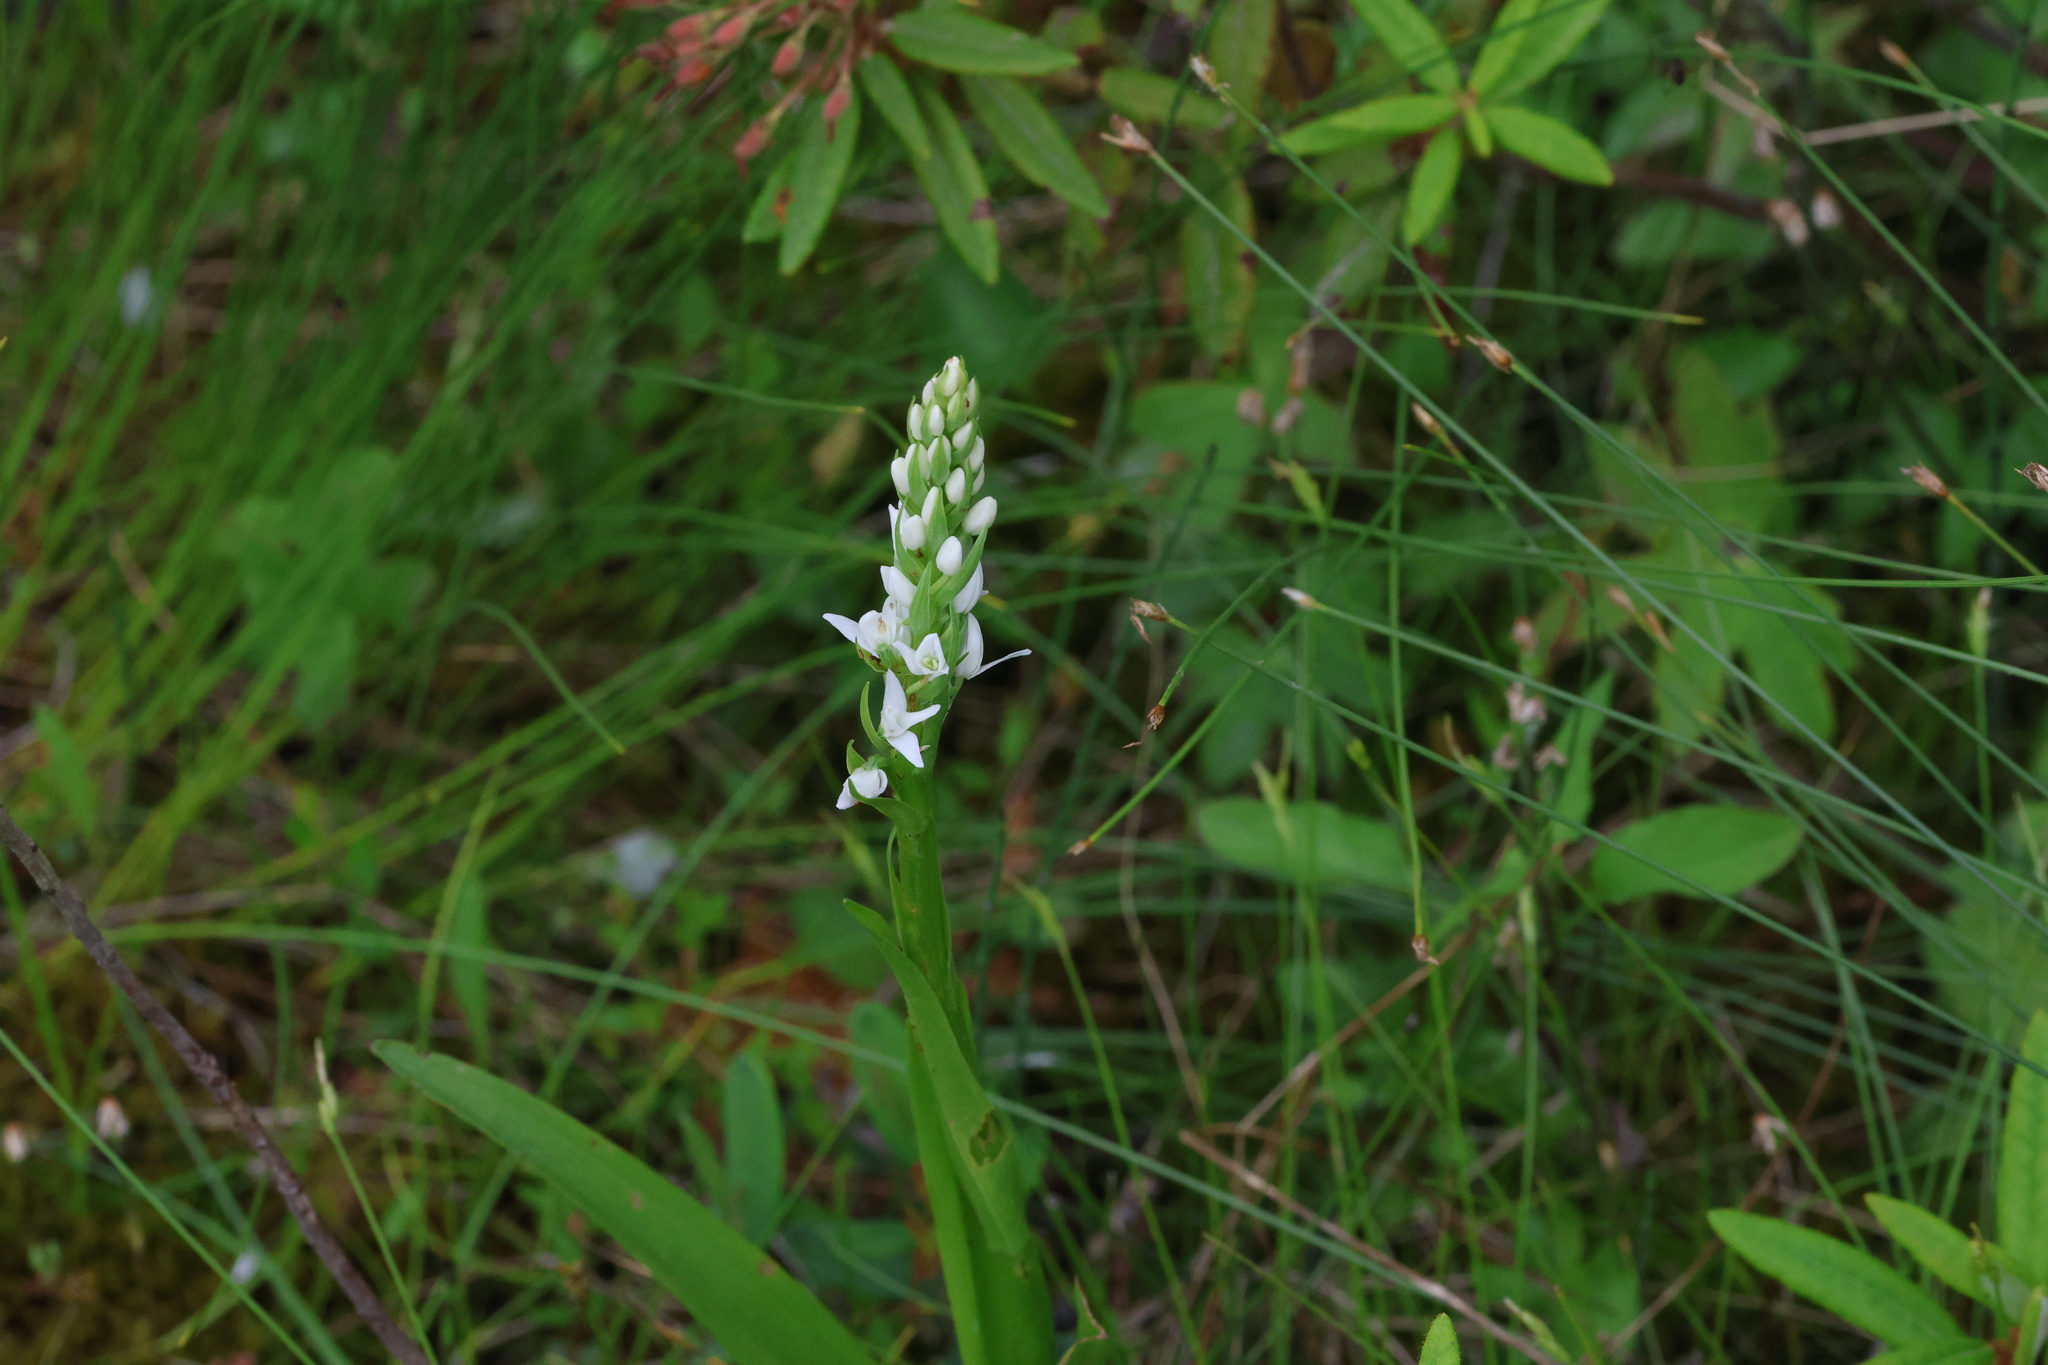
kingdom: Plantae
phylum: Tracheophyta
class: Liliopsida
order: Asparagales
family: Orchidaceae
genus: Platanthera
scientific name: Platanthera dilatata
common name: Bog candles
